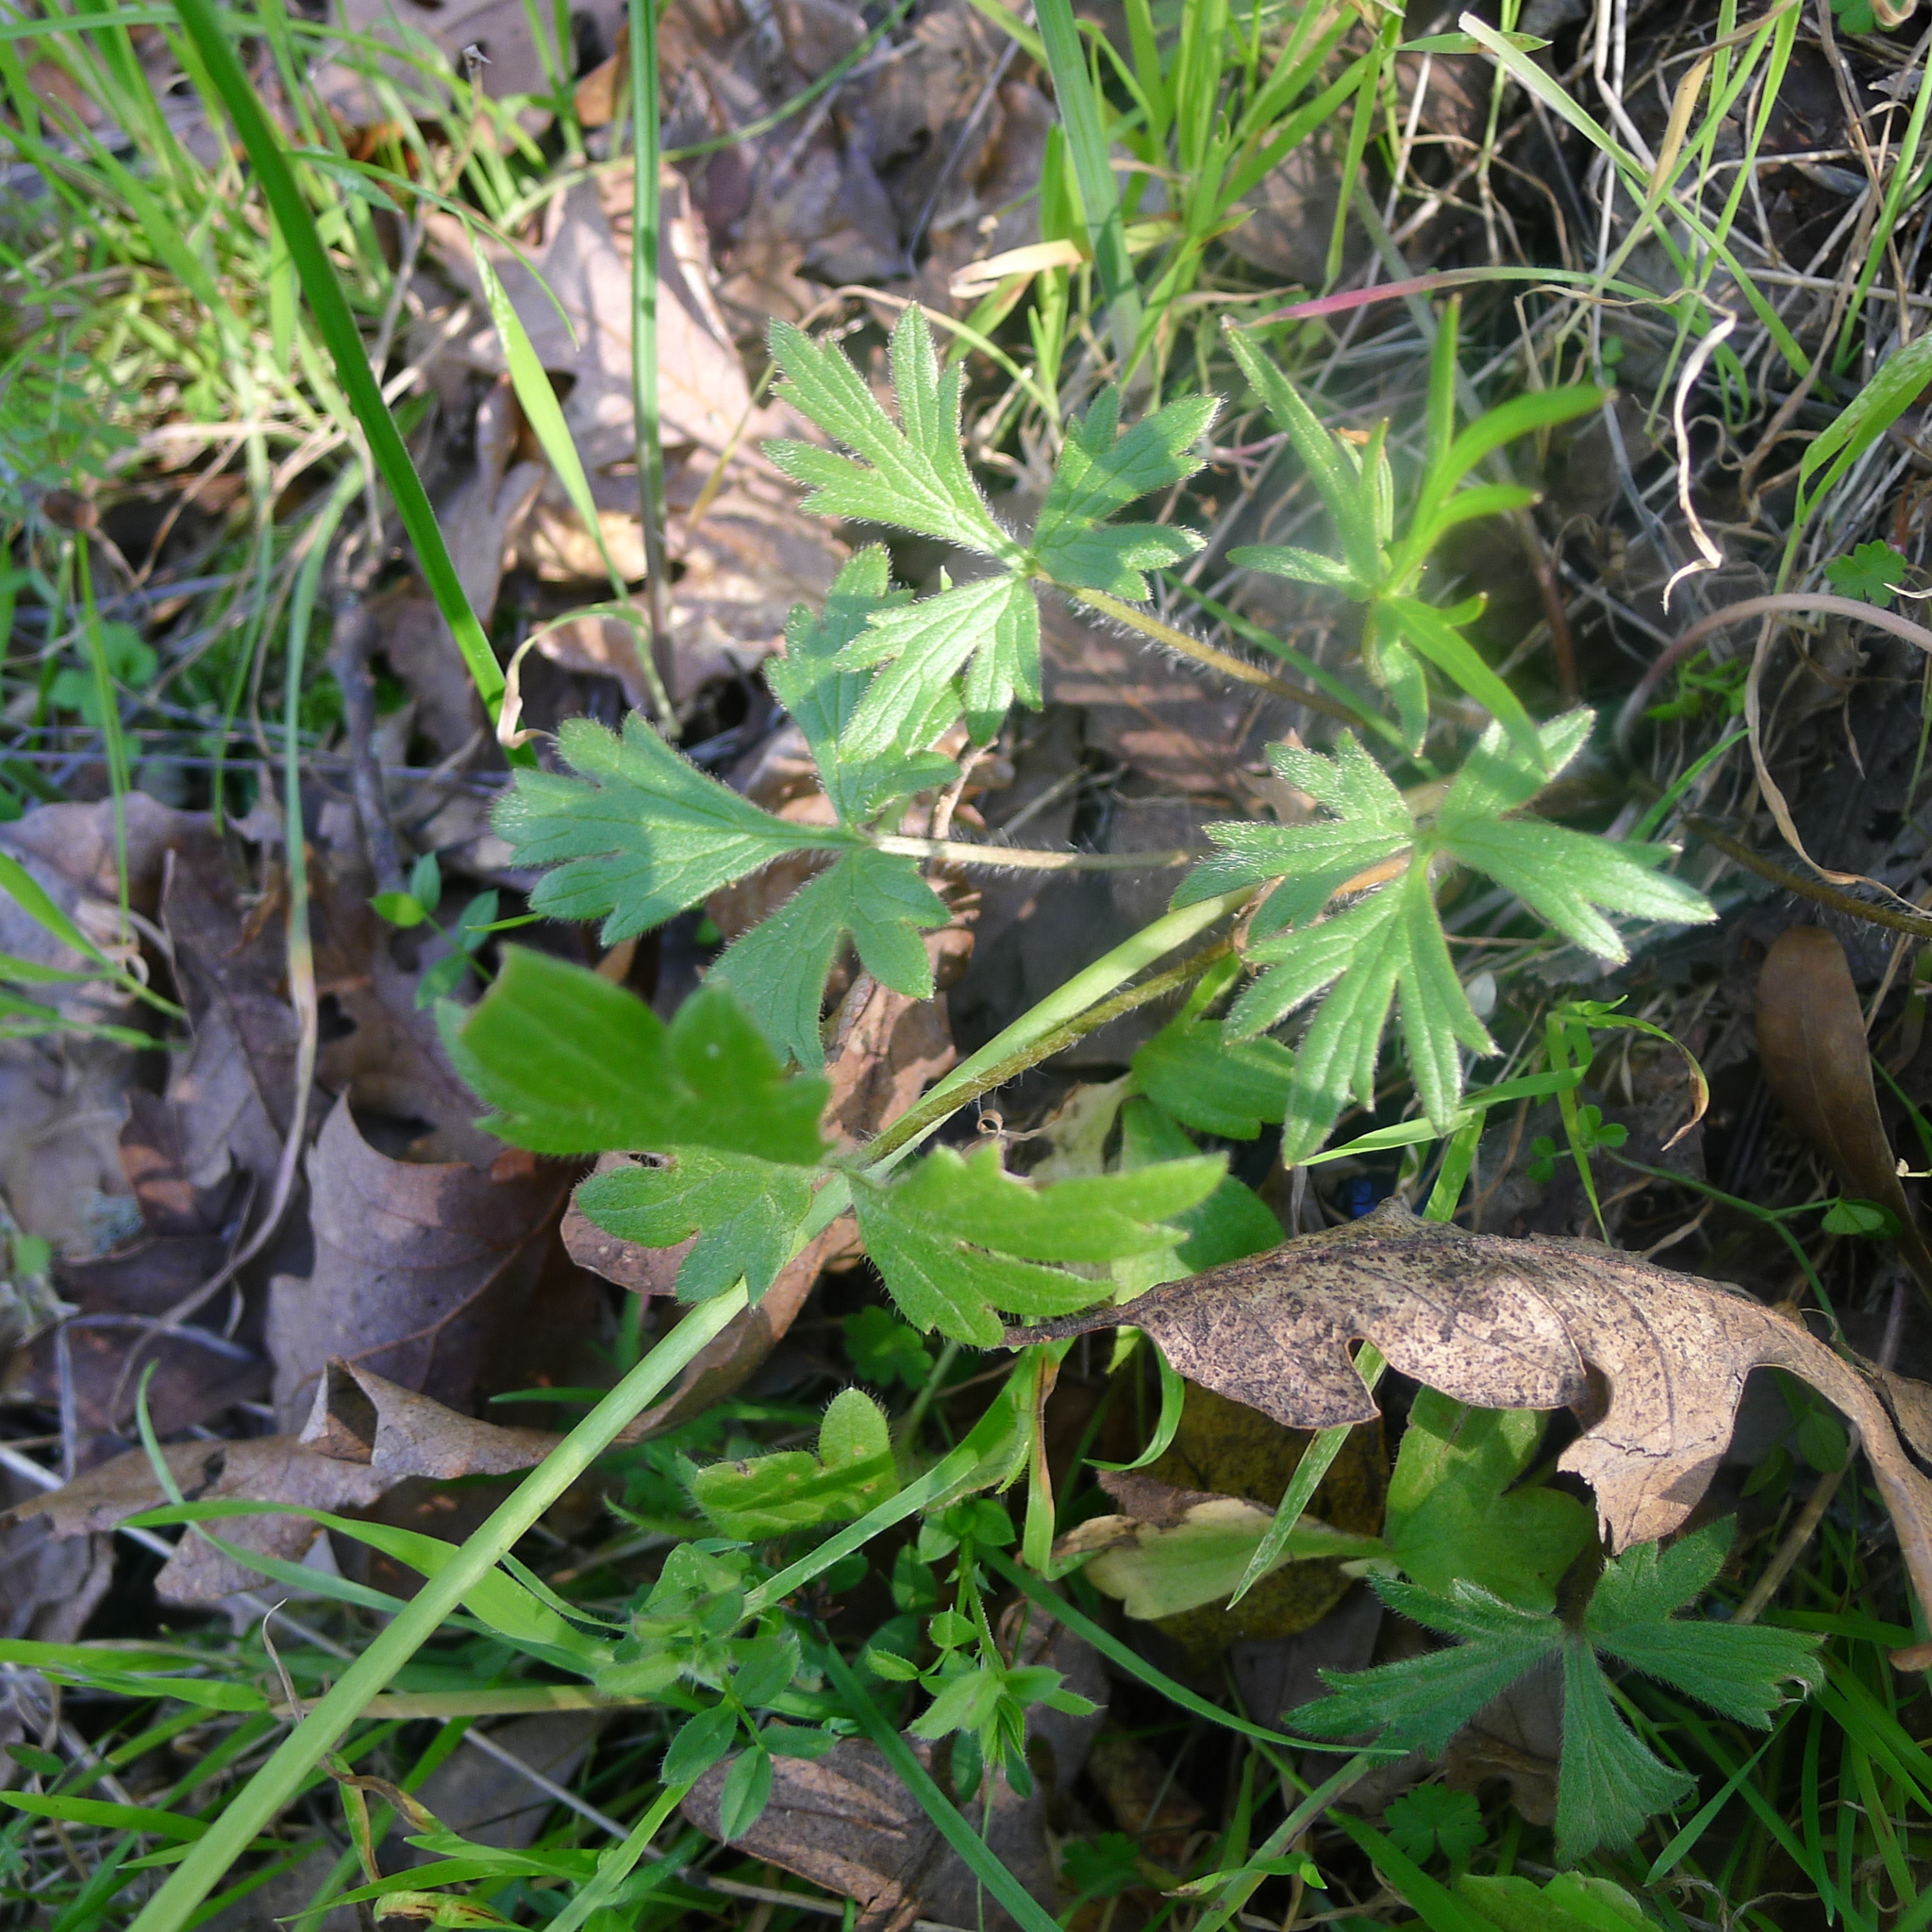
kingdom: Plantae
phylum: Tracheophyta
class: Magnoliopsida
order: Ranunculales
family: Ranunculaceae
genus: Ranunculus
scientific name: Ranunculus californicus
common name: California buttercup
